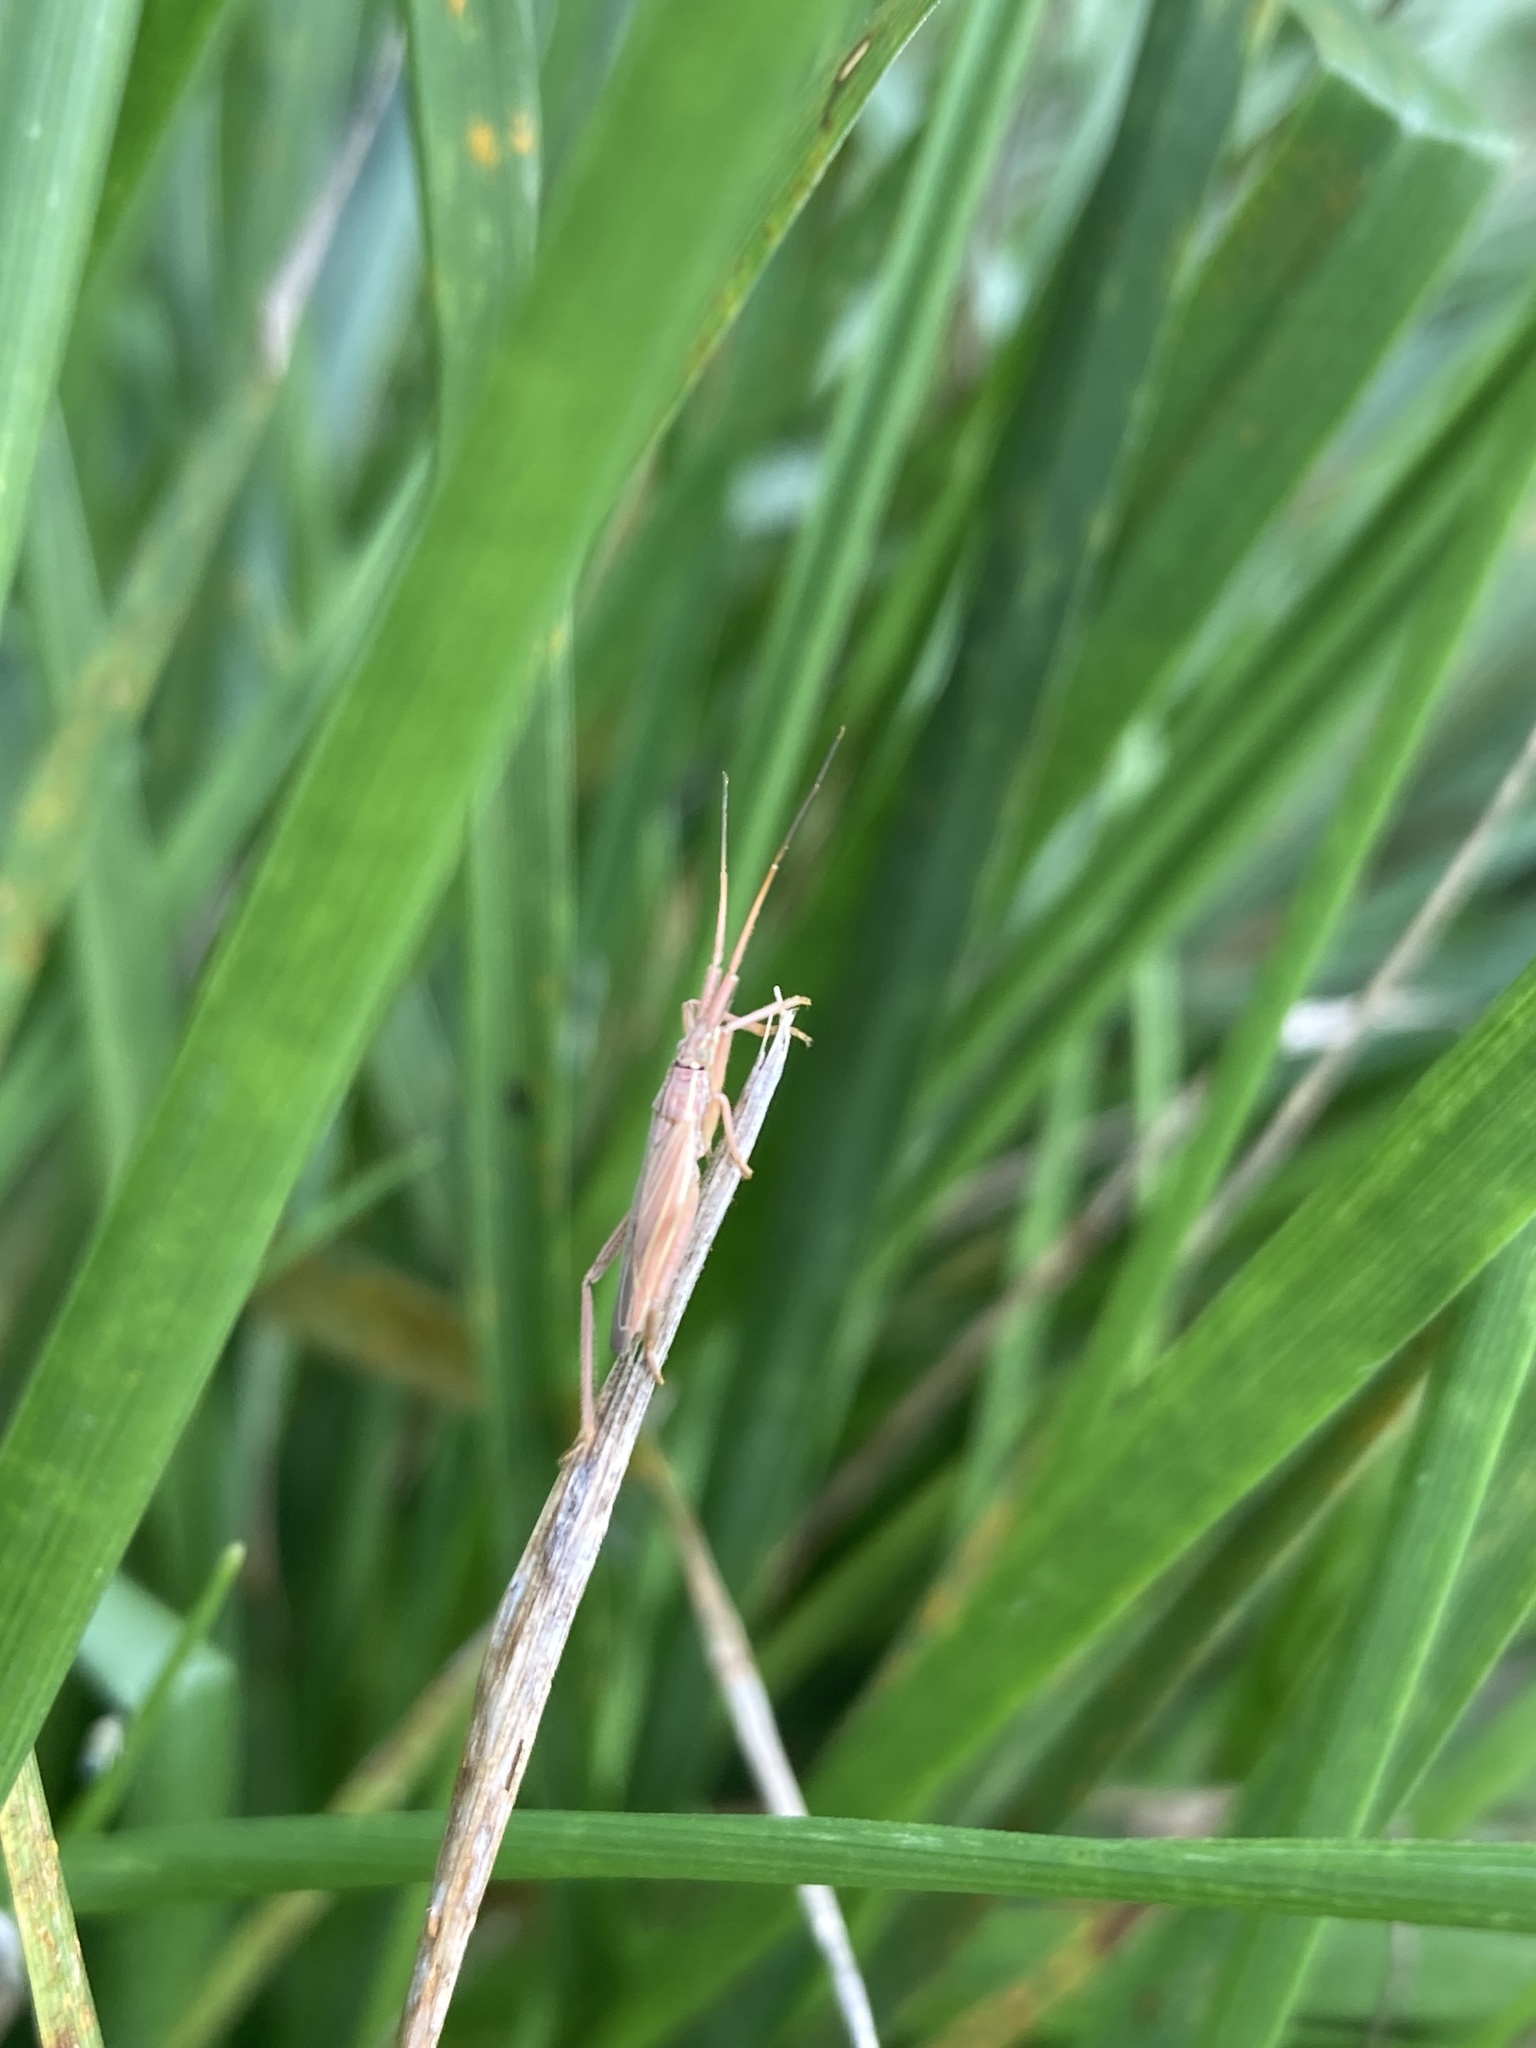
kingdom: Animalia
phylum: Arthropoda
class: Insecta
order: Hemiptera
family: Miridae
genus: Stenodema
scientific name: Stenodema laevigata
